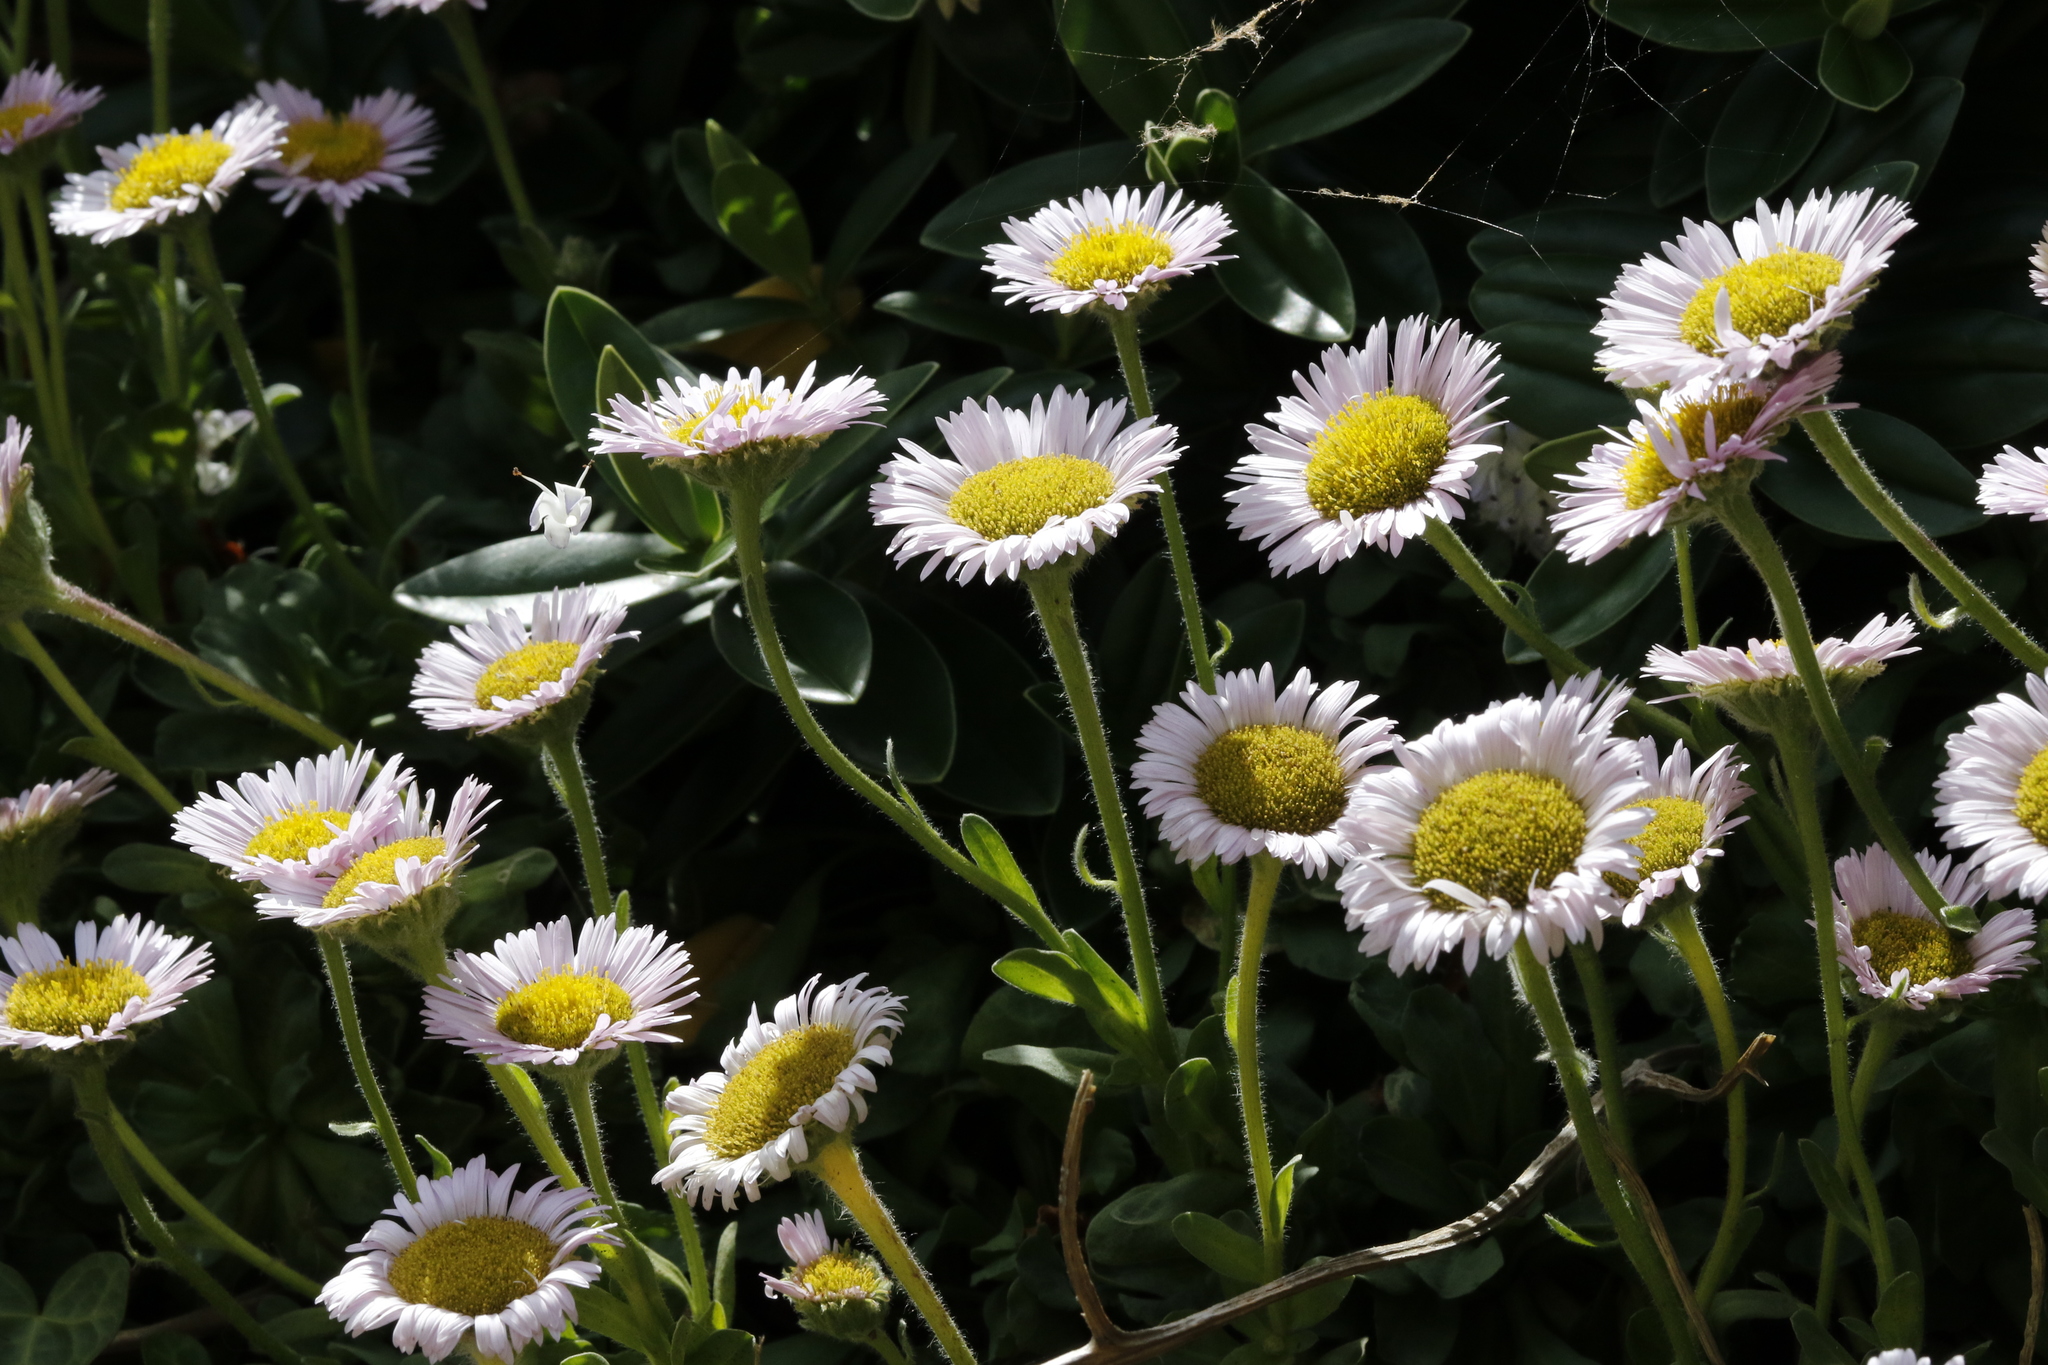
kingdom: Plantae
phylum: Tracheophyta
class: Magnoliopsida
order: Asterales
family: Asteraceae
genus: Erigeron
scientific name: Erigeron glaucus
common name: Seaside daisy
